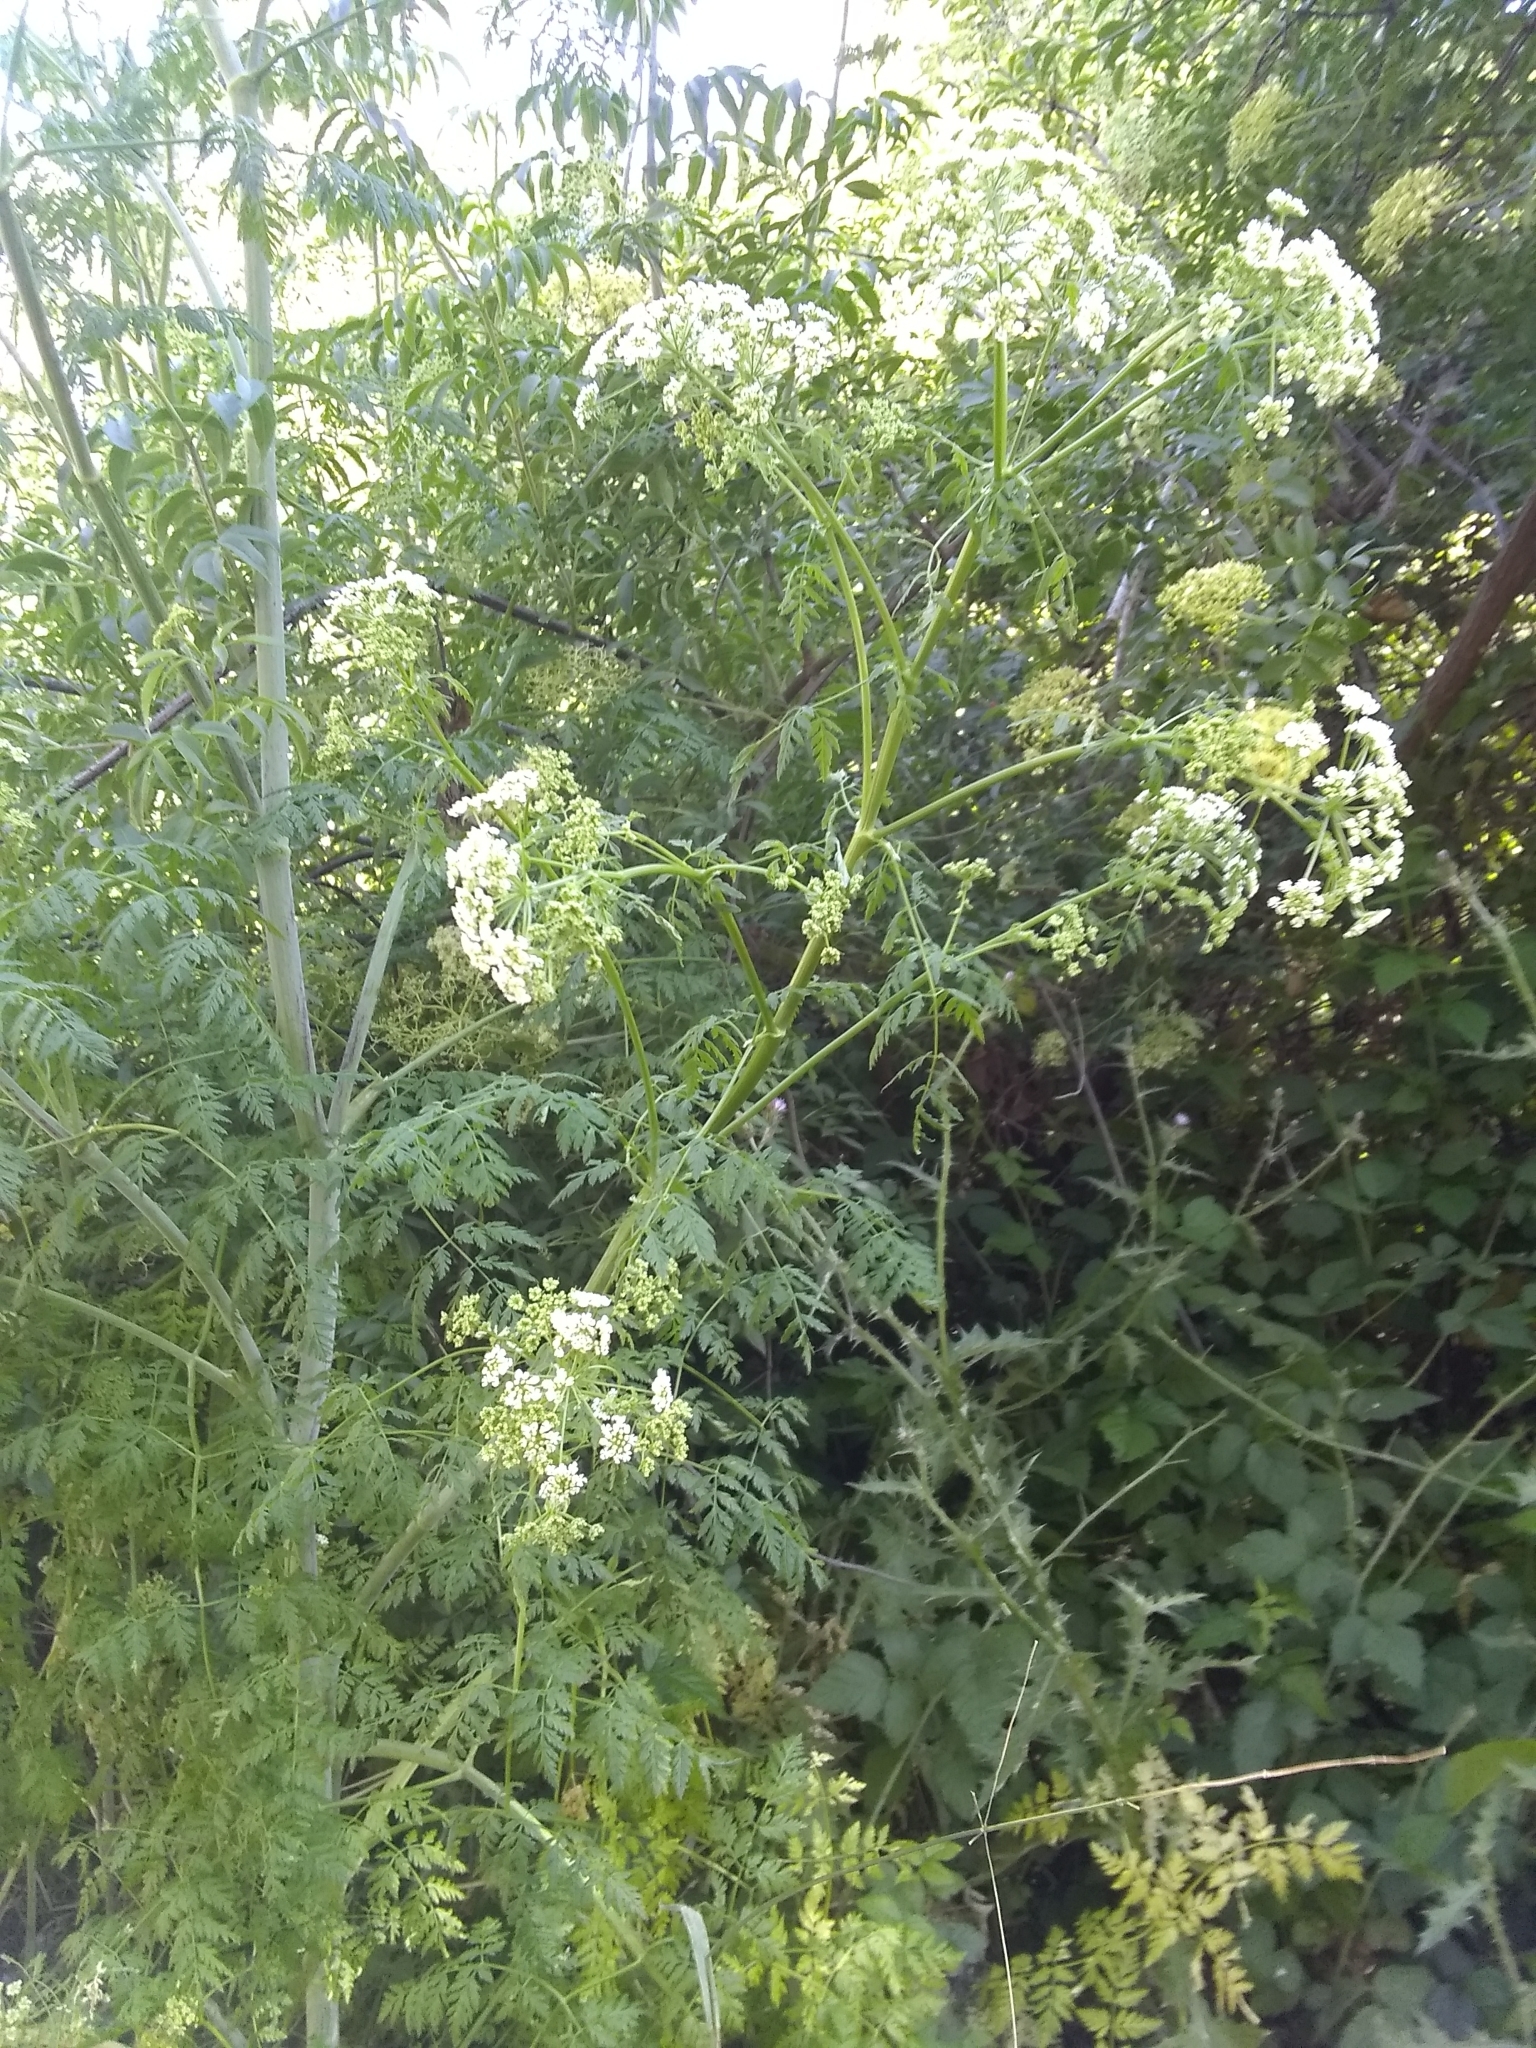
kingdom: Plantae
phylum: Tracheophyta
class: Magnoliopsida
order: Apiales
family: Apiaceae
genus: Conium
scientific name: Conium maculatum
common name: Hemlock
